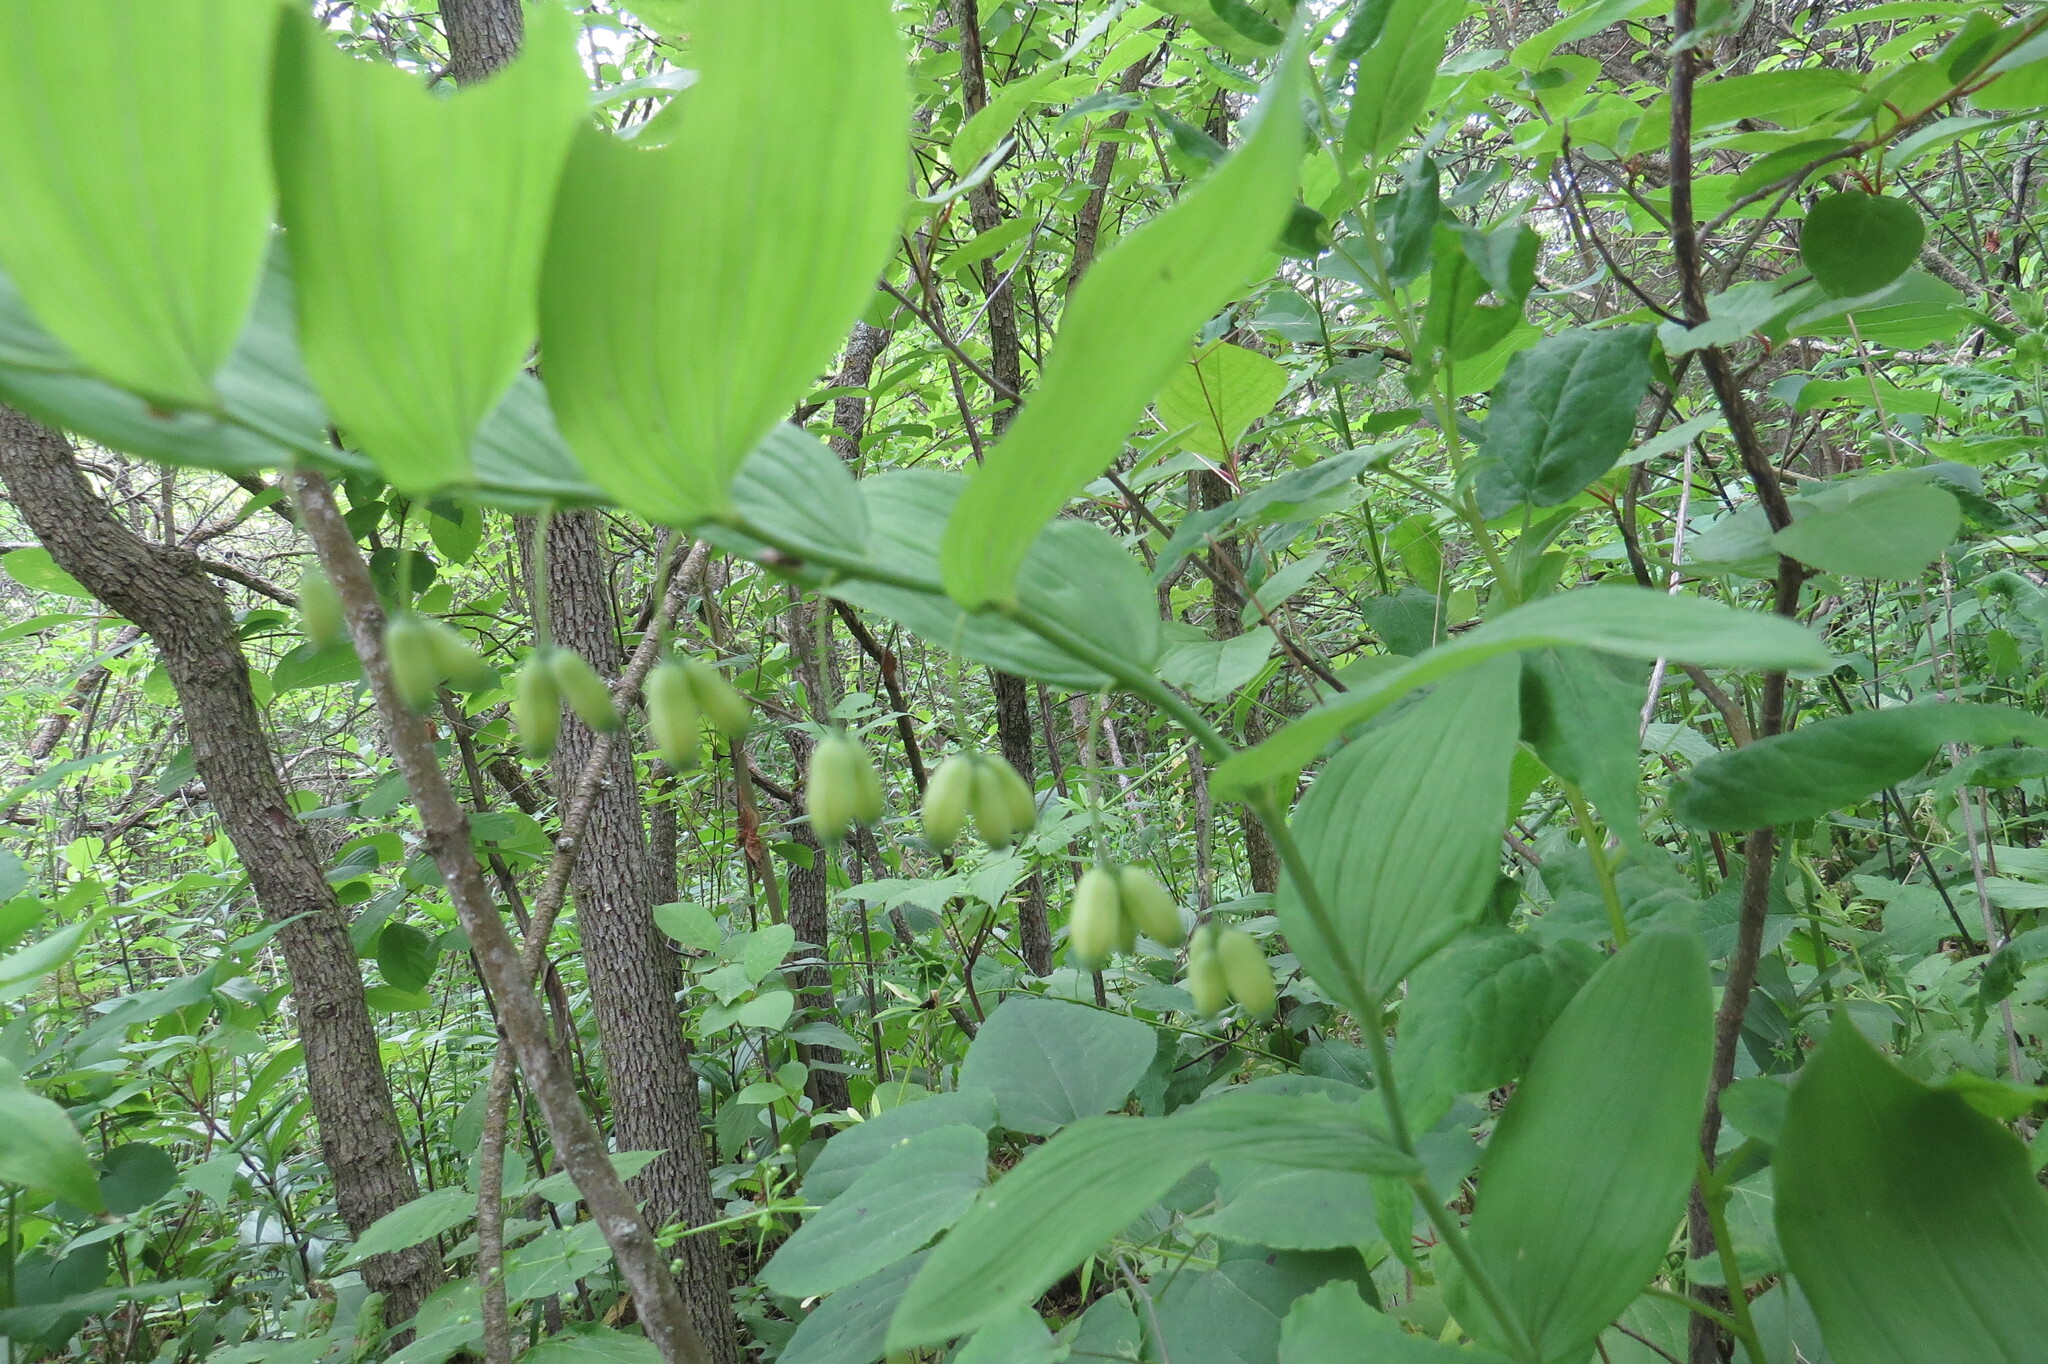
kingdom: Plantae
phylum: Tracheophyta
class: Liliopsida
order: Asparagales
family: Asparagaceae
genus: Polygonatum
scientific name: Polygonatum biflorum
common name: American solomon's-seal
